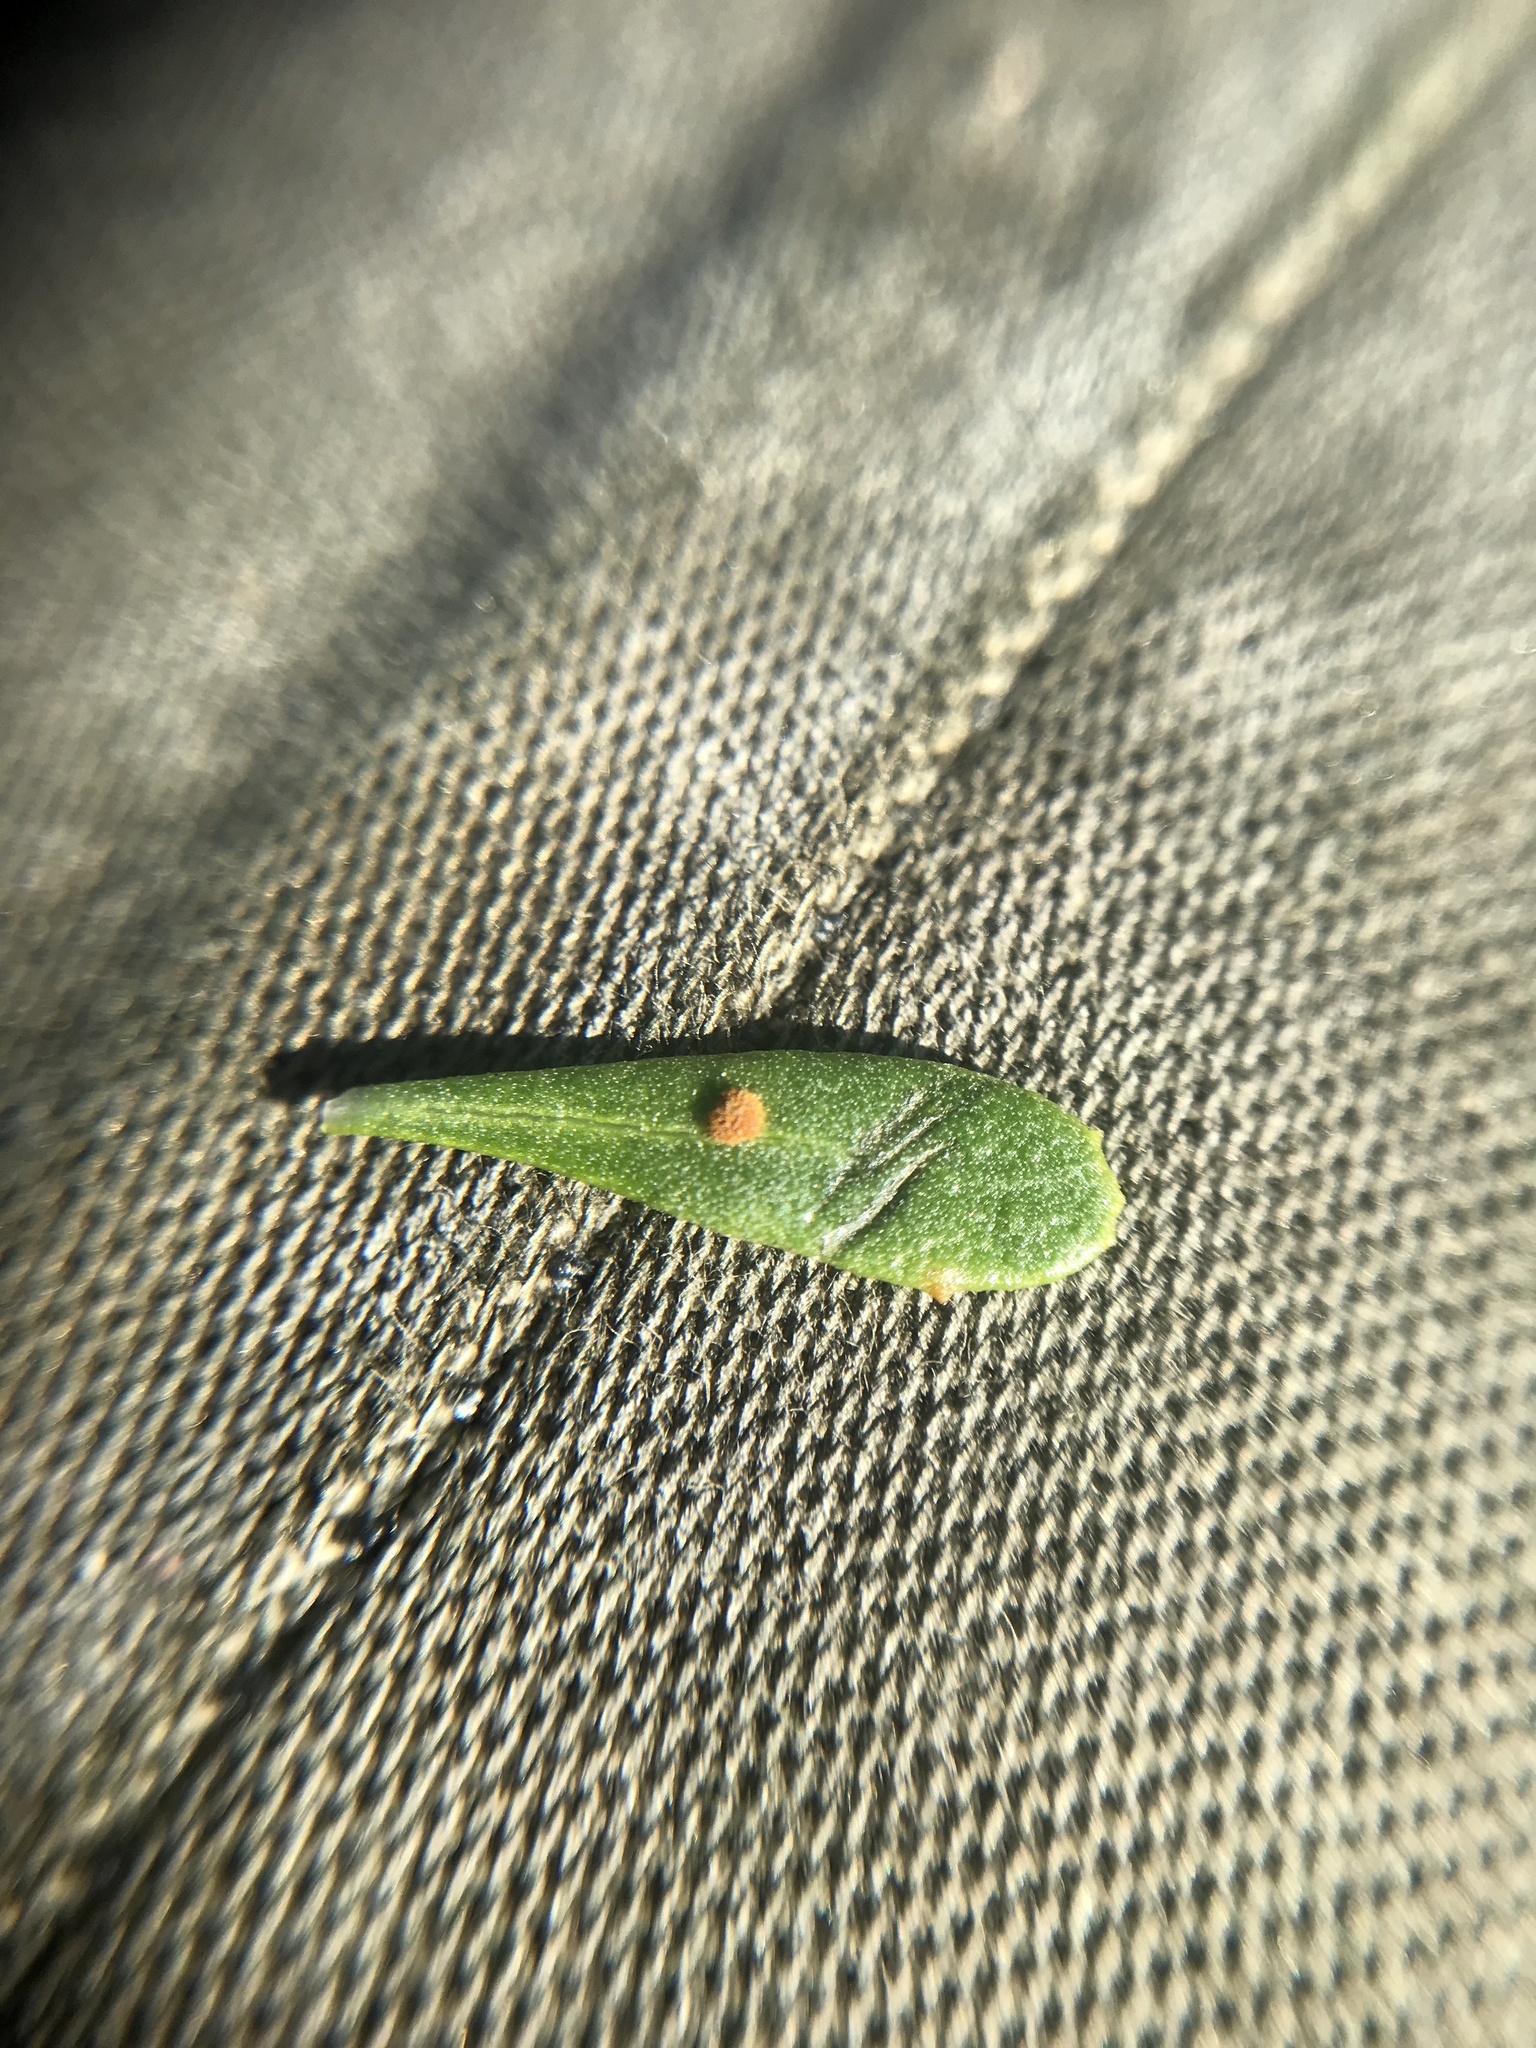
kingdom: Fungi
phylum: Basidiomycota
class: Pucciniomycetes
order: Pucciniales
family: Pucciniaceae
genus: Eriosporangium
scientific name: Eriosporangium evadens
